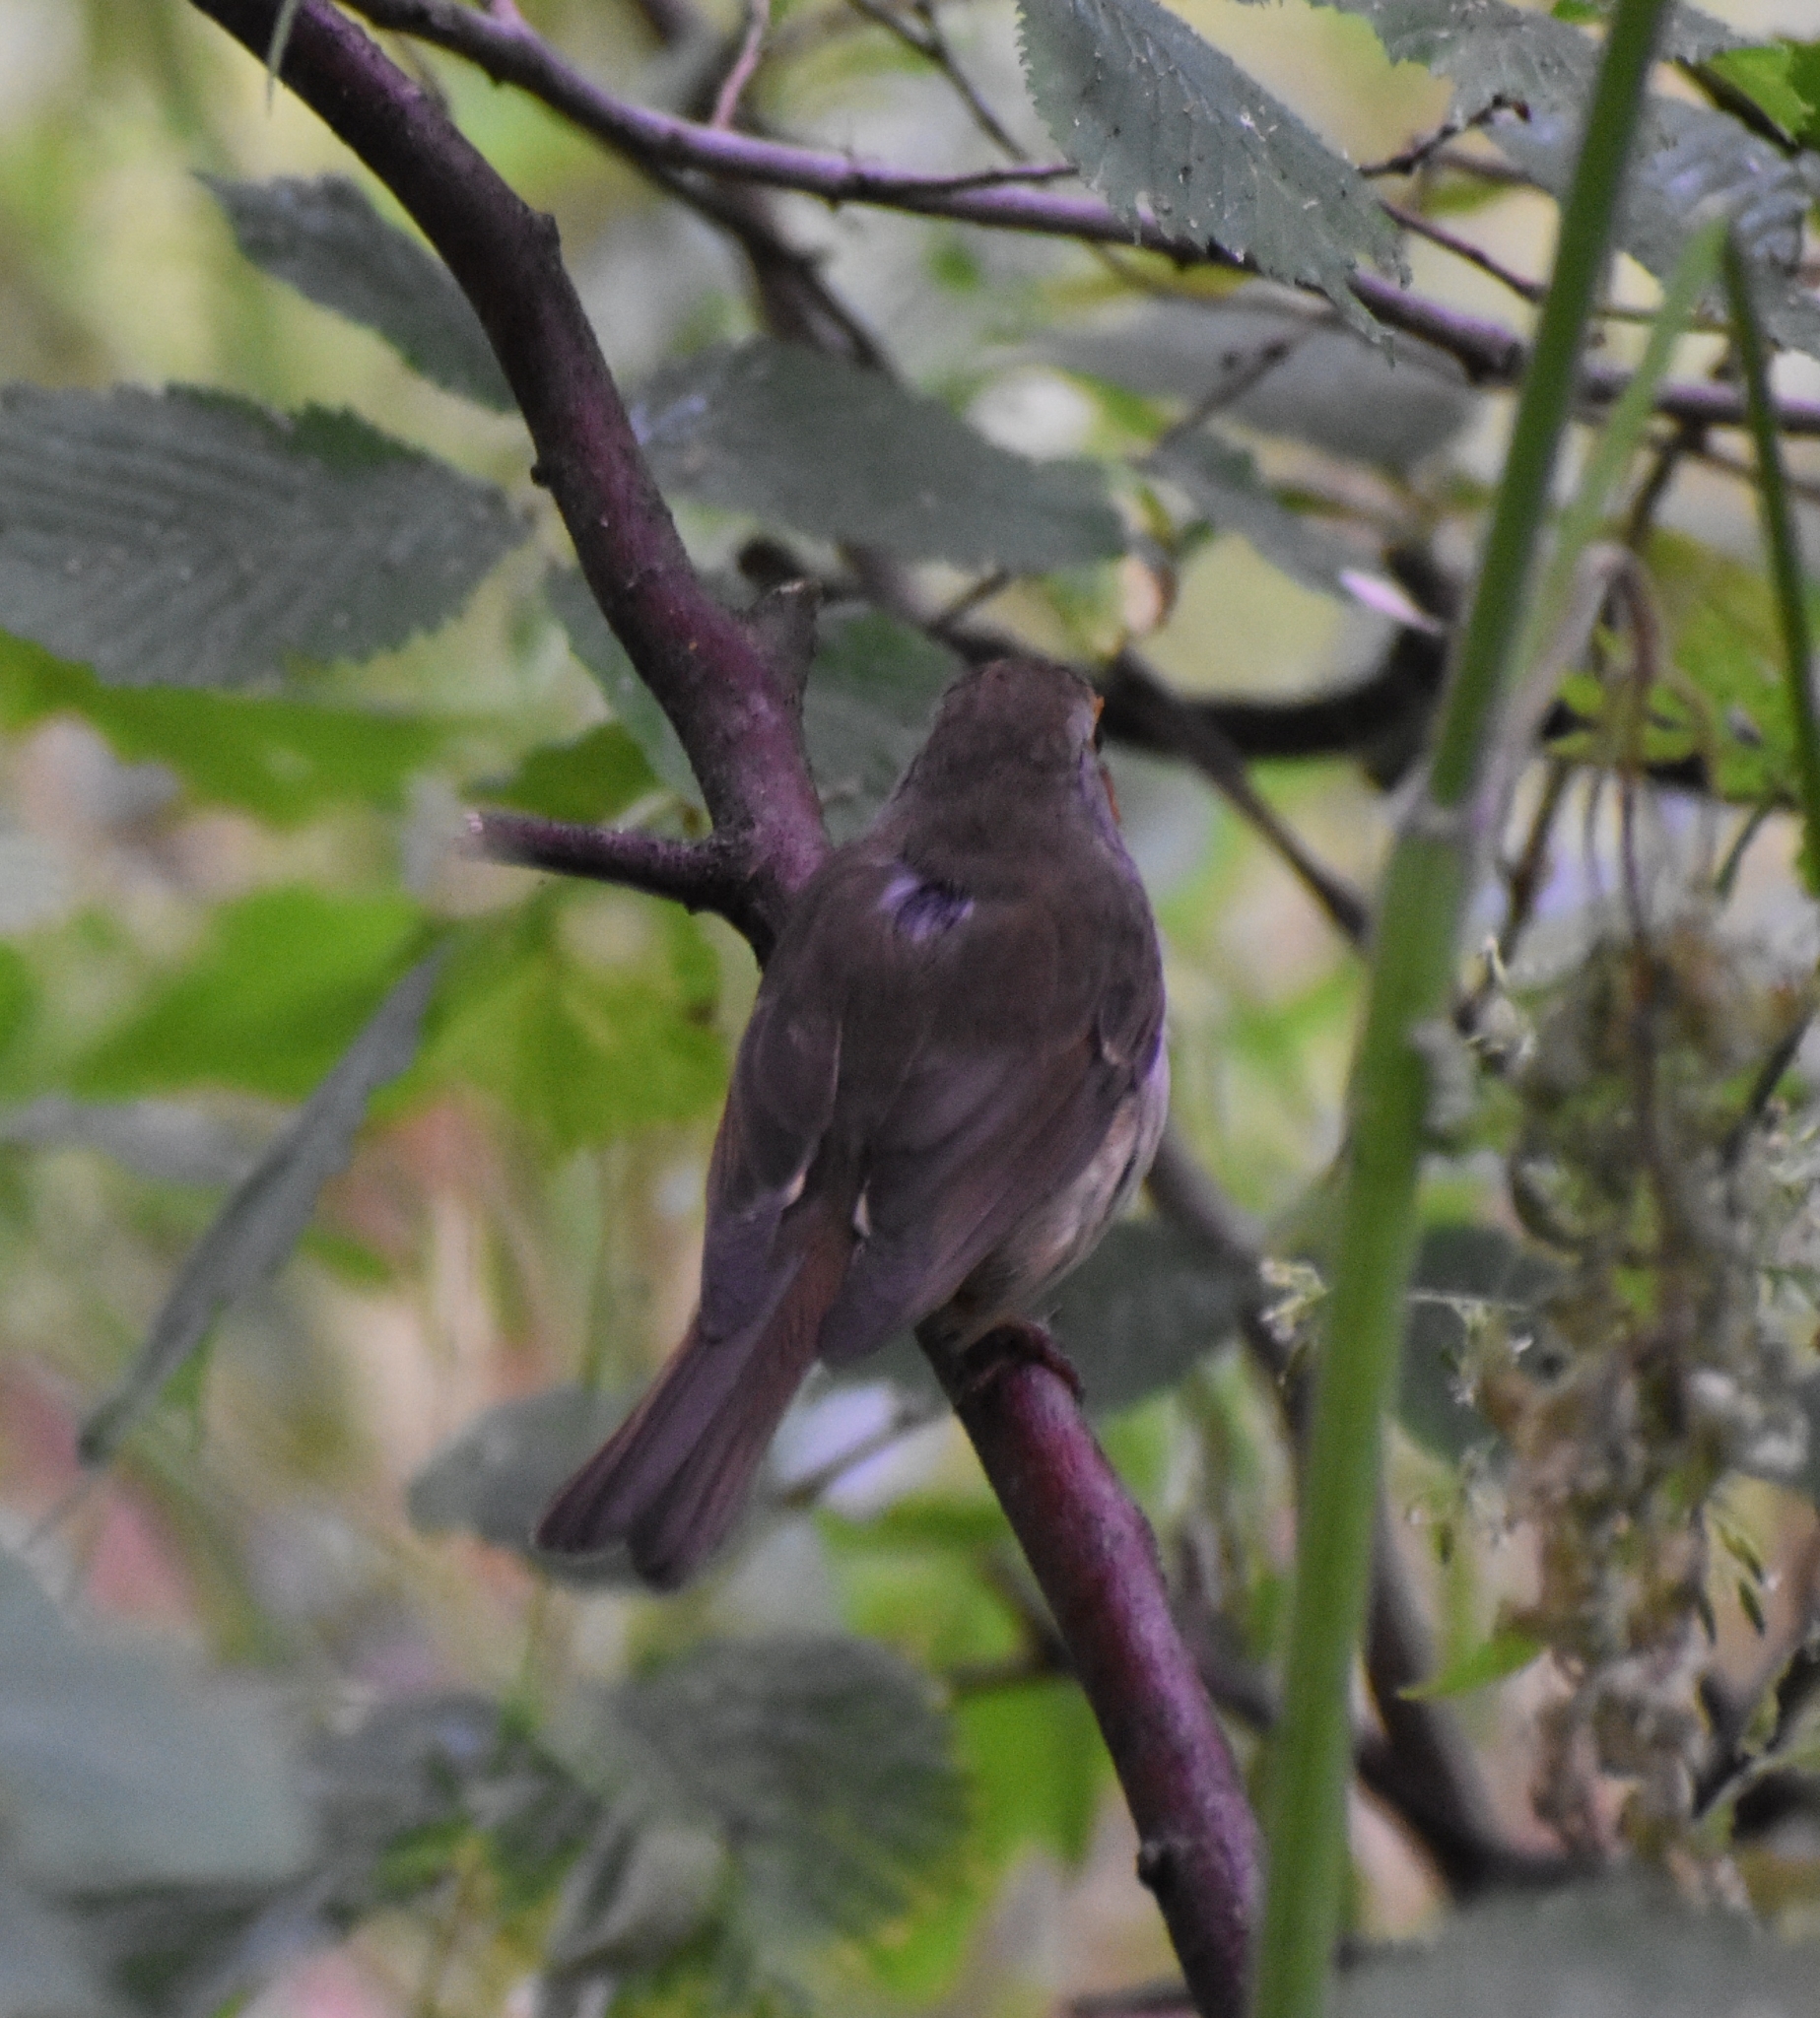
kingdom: Animalia
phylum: Chordata
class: Aves
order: Passeriformes
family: Muscicapidae
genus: Erithacus
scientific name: Erithacus rubecula
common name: European robin
